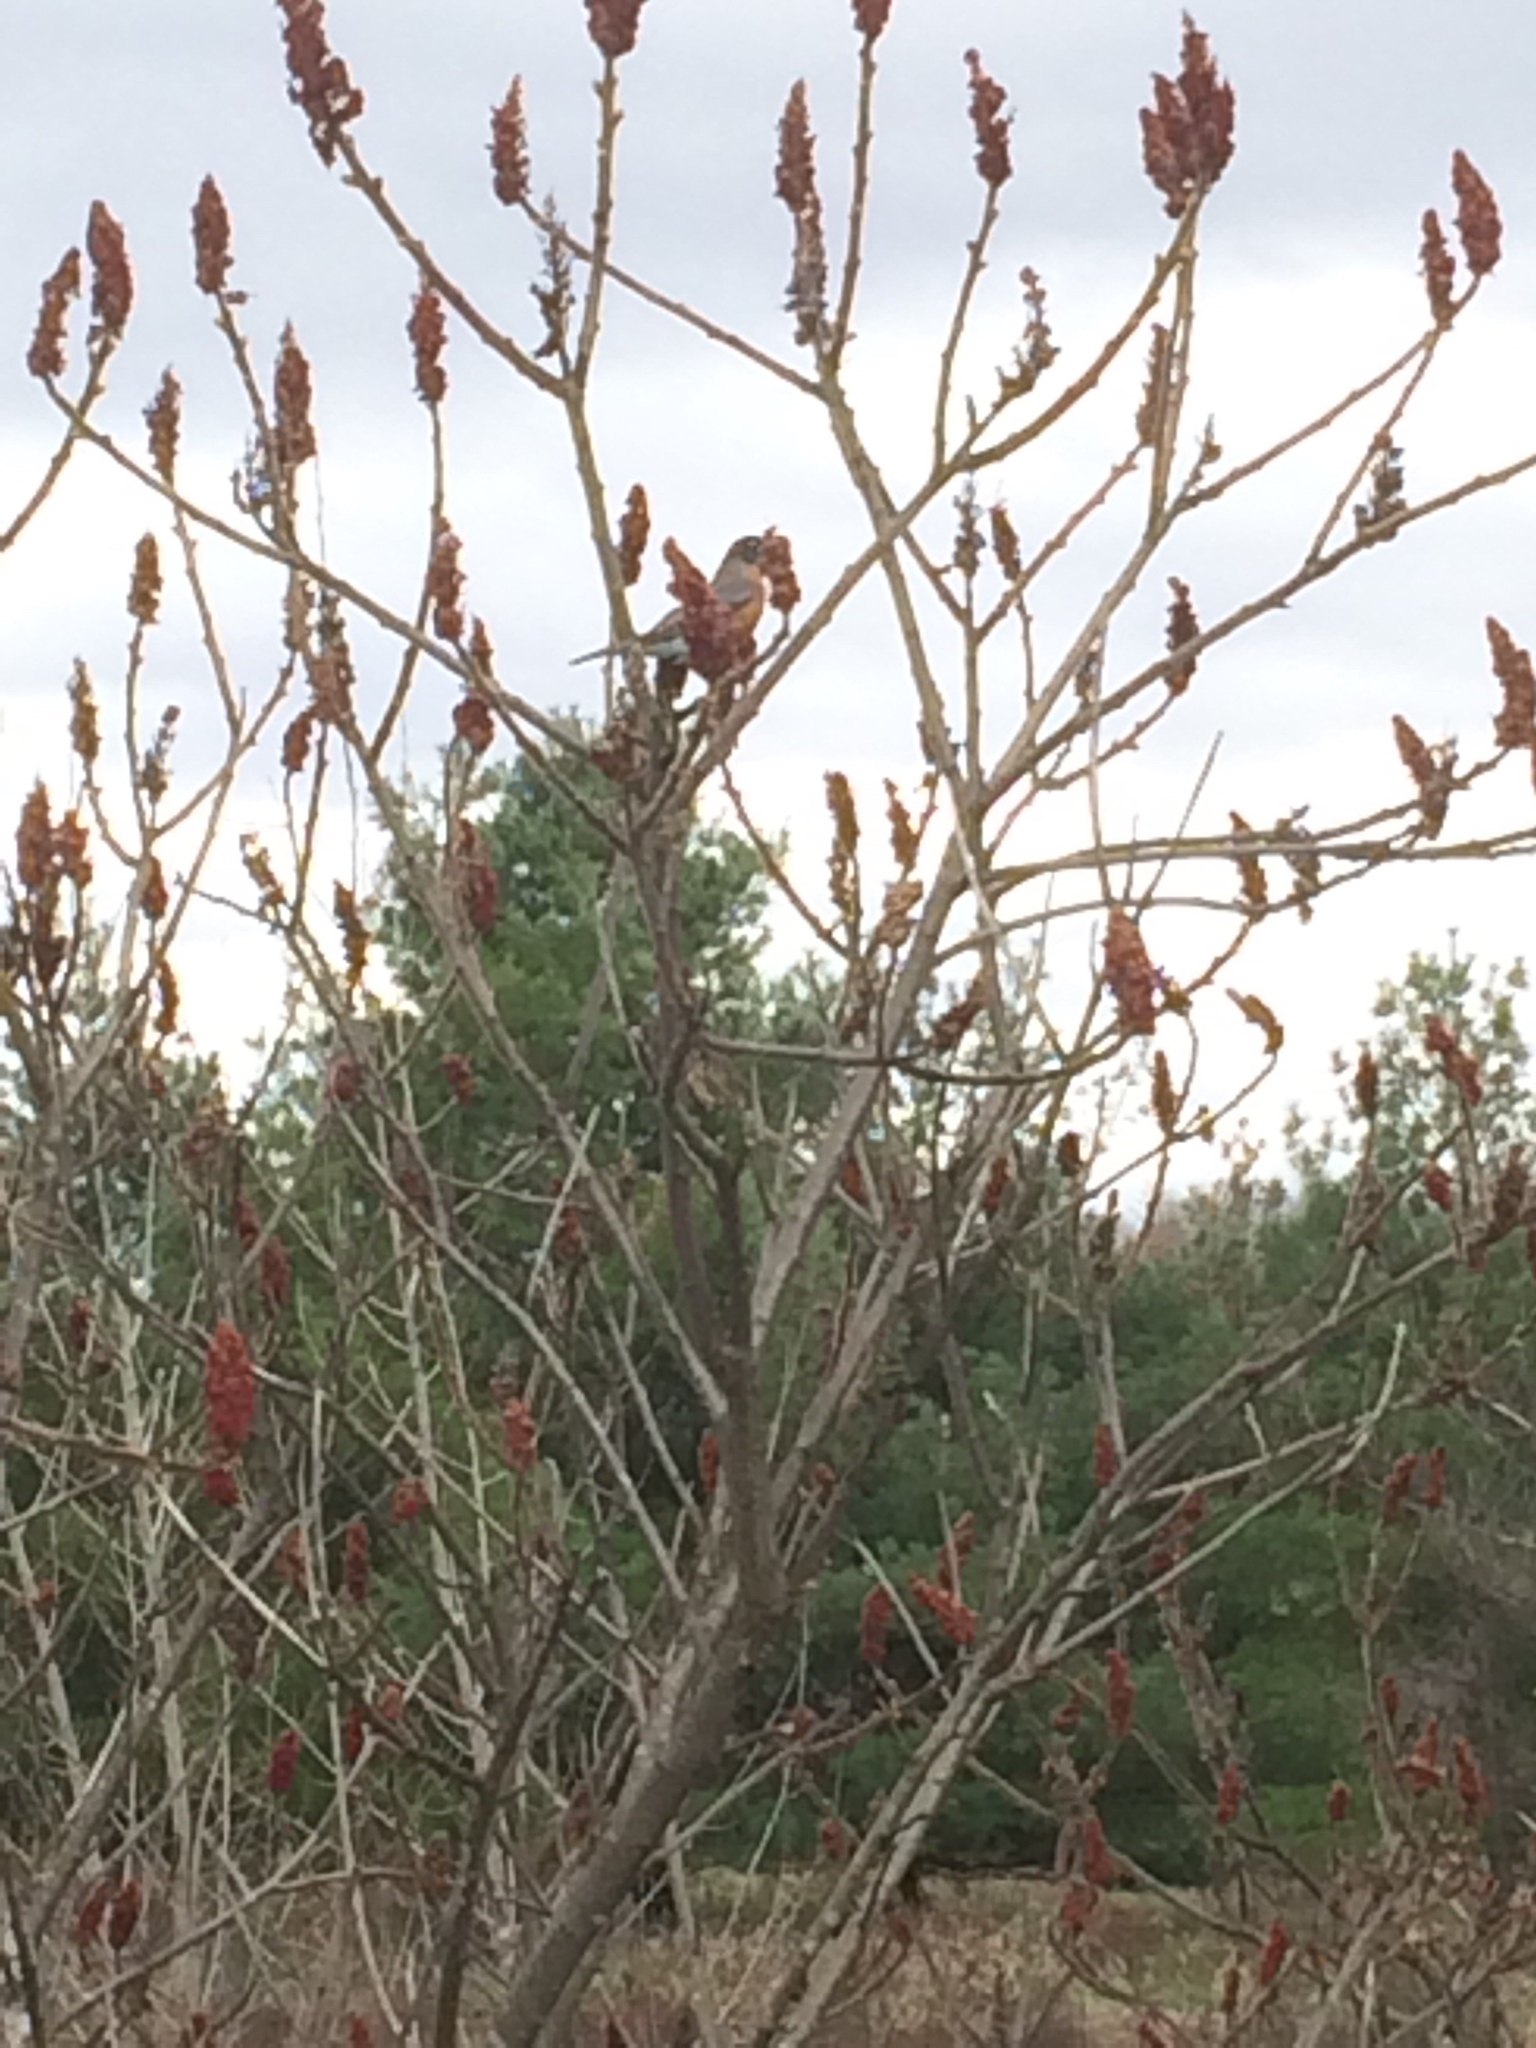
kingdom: Animalia
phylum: Chordata
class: Aves
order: Passeriformes
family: Turdidae
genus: Turdus
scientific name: Turdus migratorius
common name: American robin
